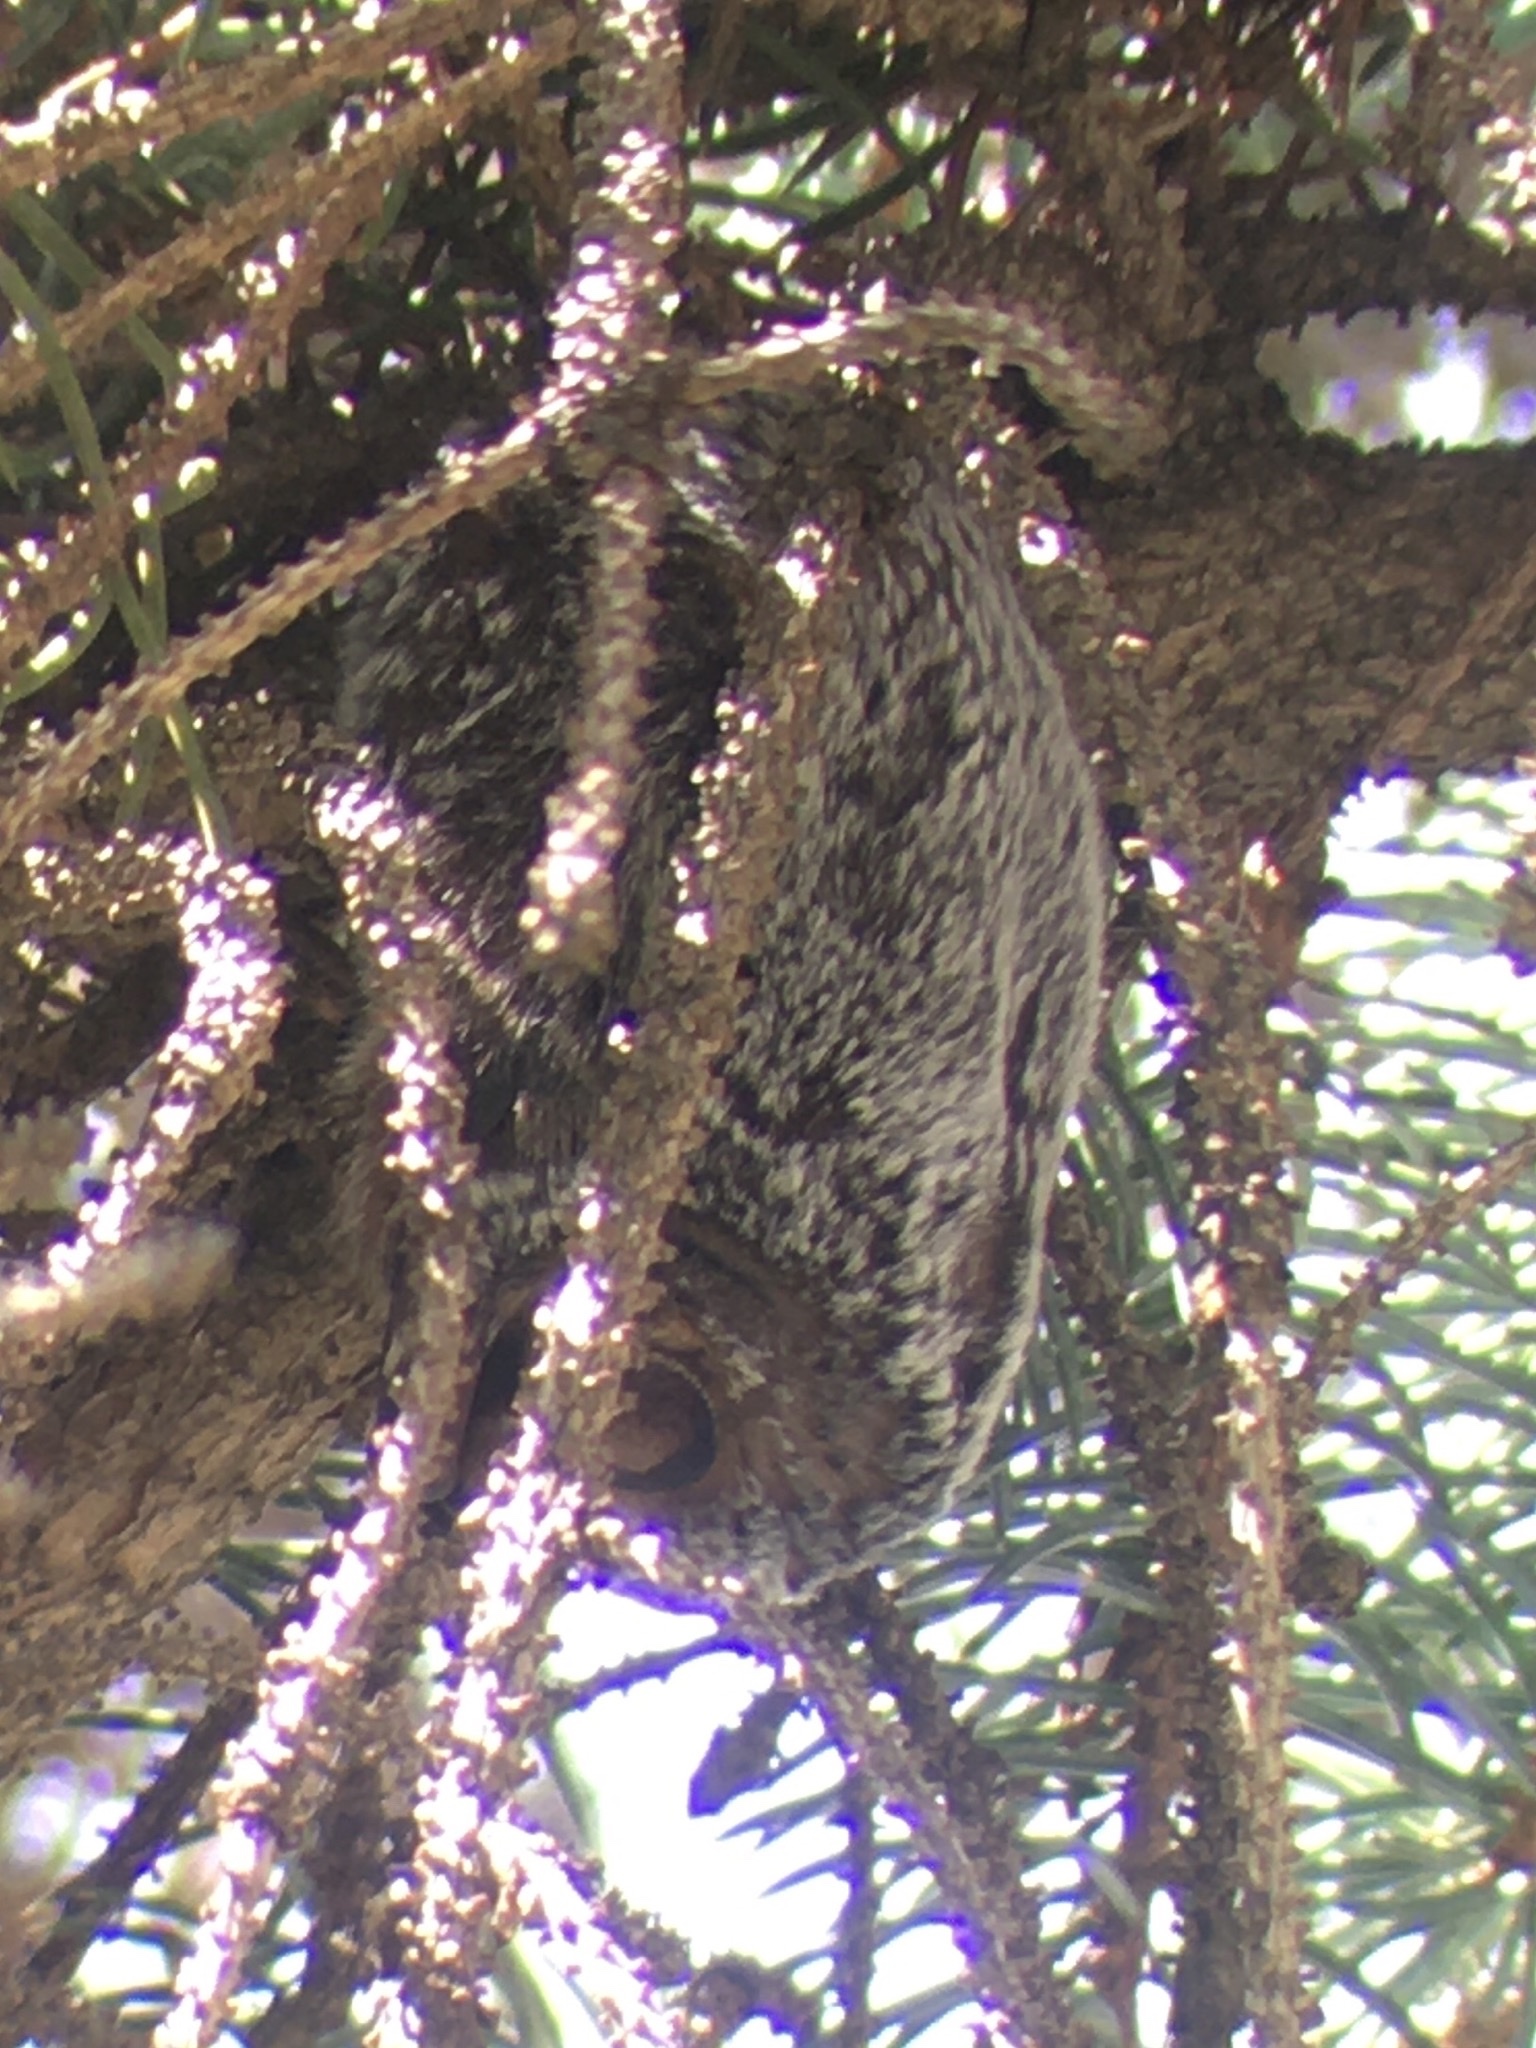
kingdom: Animalia
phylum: Chordata
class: Mammalia
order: Chiroptera
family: Vespertilionidae
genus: Aeorestes
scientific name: Aeorestes cinereus
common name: North american hoary bat
